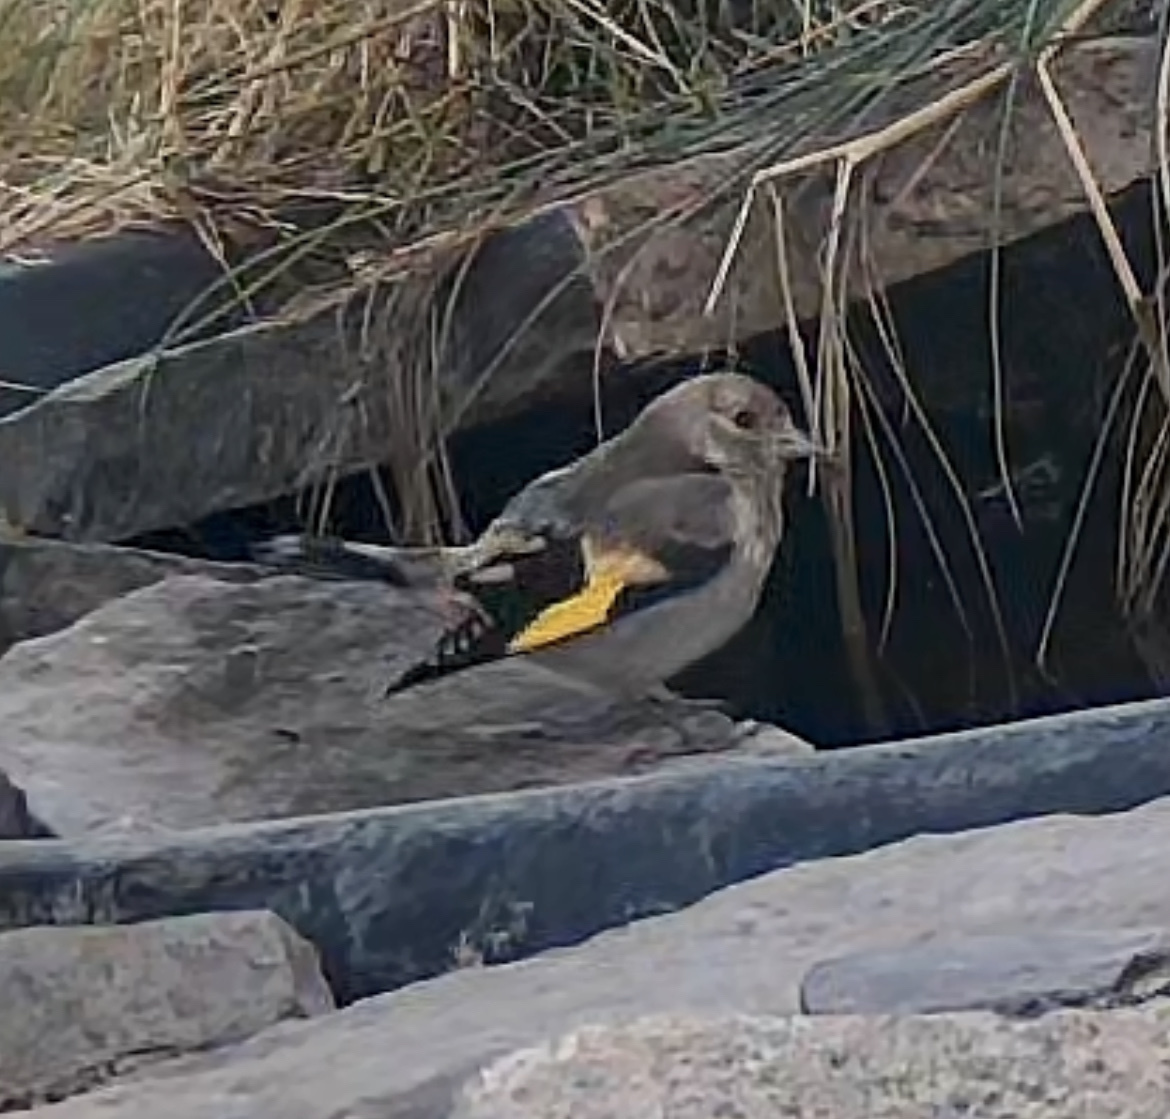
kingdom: Animalia
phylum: Chordata
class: Aves
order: Passeriformes
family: Fringillidae
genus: Carduelis
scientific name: Carduelis carduelis
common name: European goldfinch
